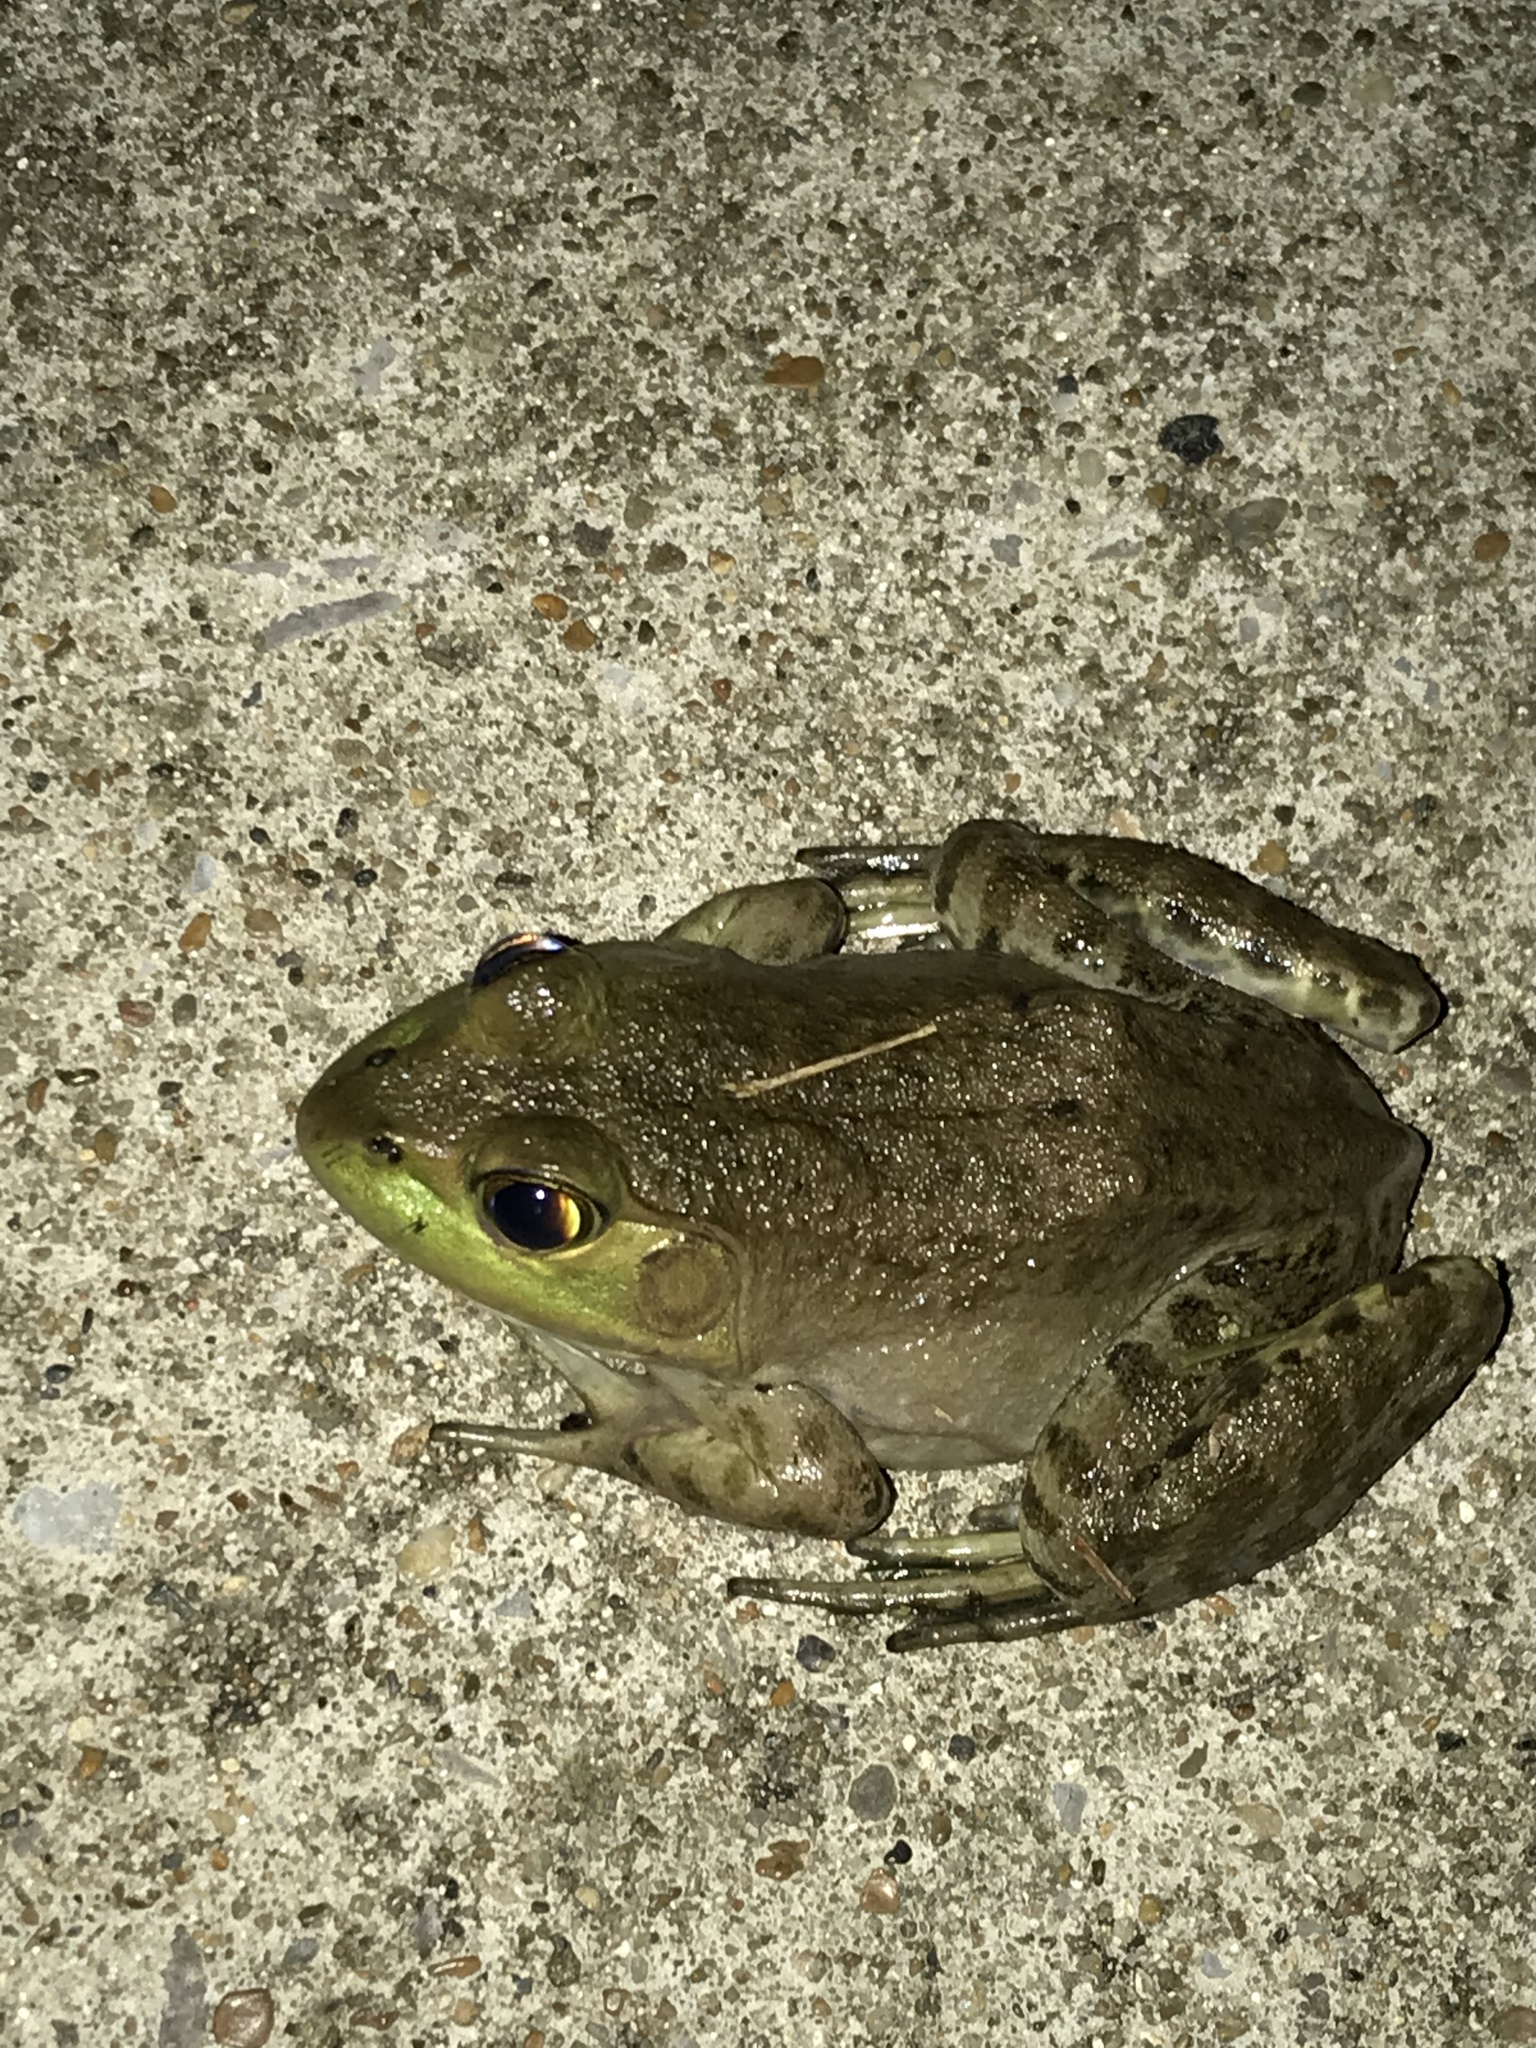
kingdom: Animalia
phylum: Chordata
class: Amphibia
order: Anura
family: Ranidae
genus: Lithobates
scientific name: Lithobates clamitans
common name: Green frog
